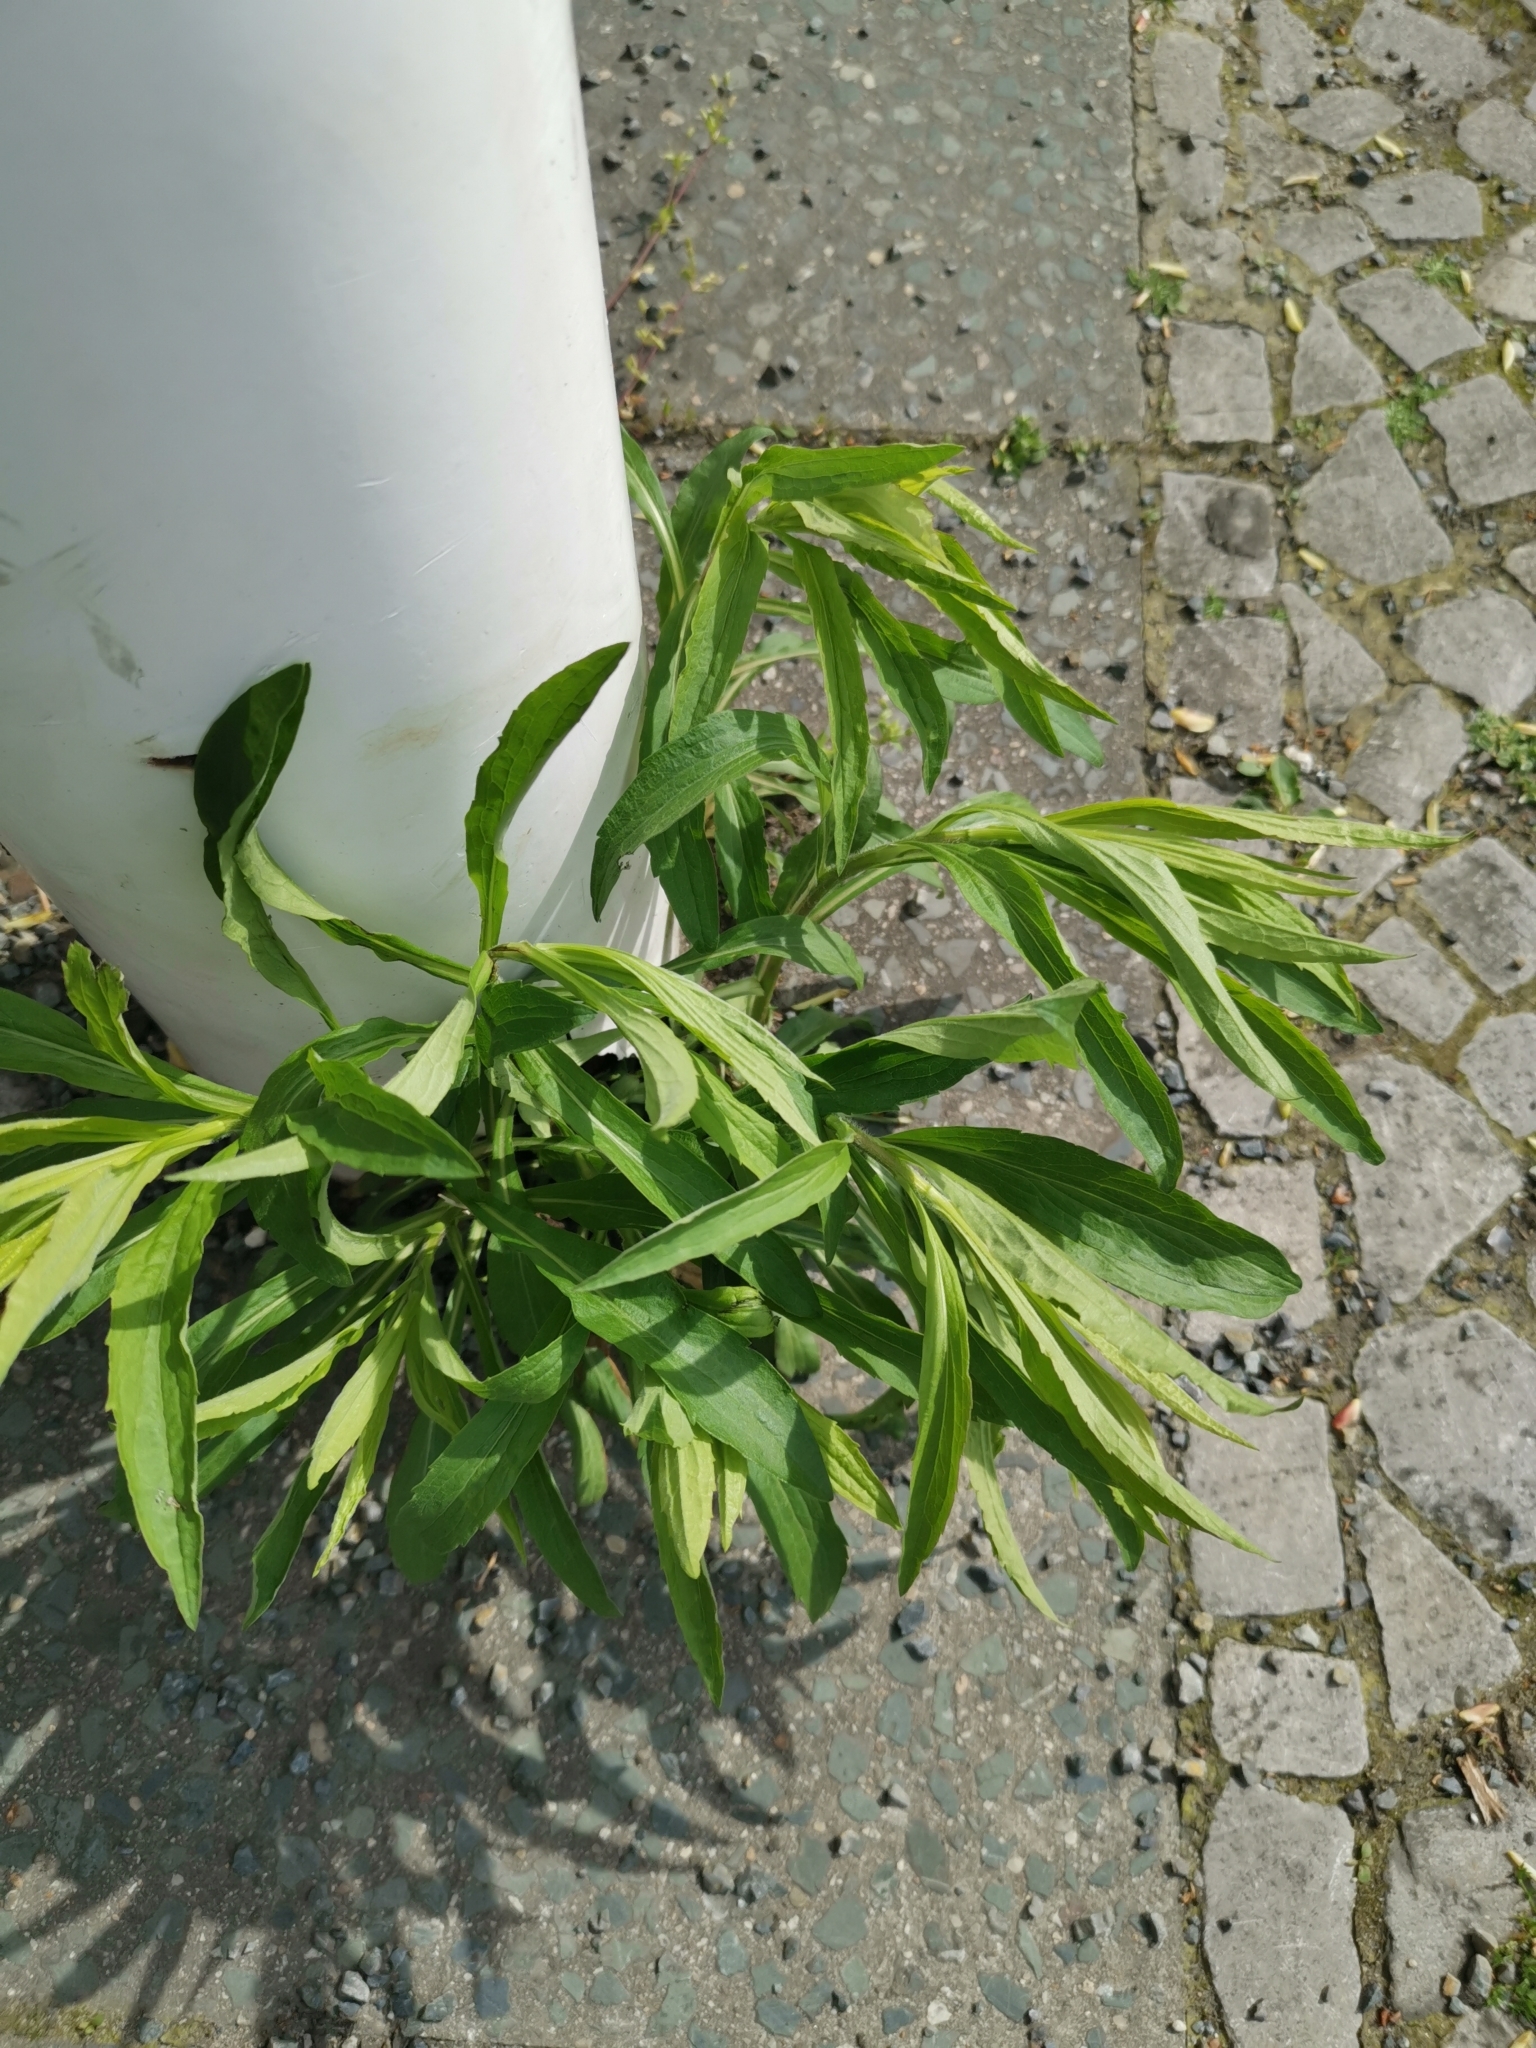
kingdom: Plantae
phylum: Tracheophyta
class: Magnoliopsida
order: Asterales
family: Asteraceae
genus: Solidago
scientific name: Solidago canadensis
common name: Canada goldenrod
